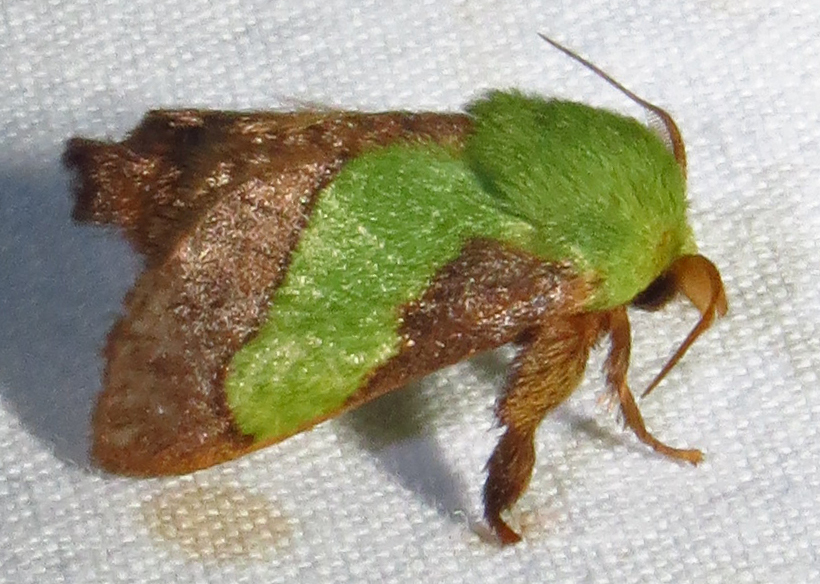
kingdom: Animalia
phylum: Arthropoda
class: Insecta
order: Lepidoptera
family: Limacodidae
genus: Parasa
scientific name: Parasa chloris
